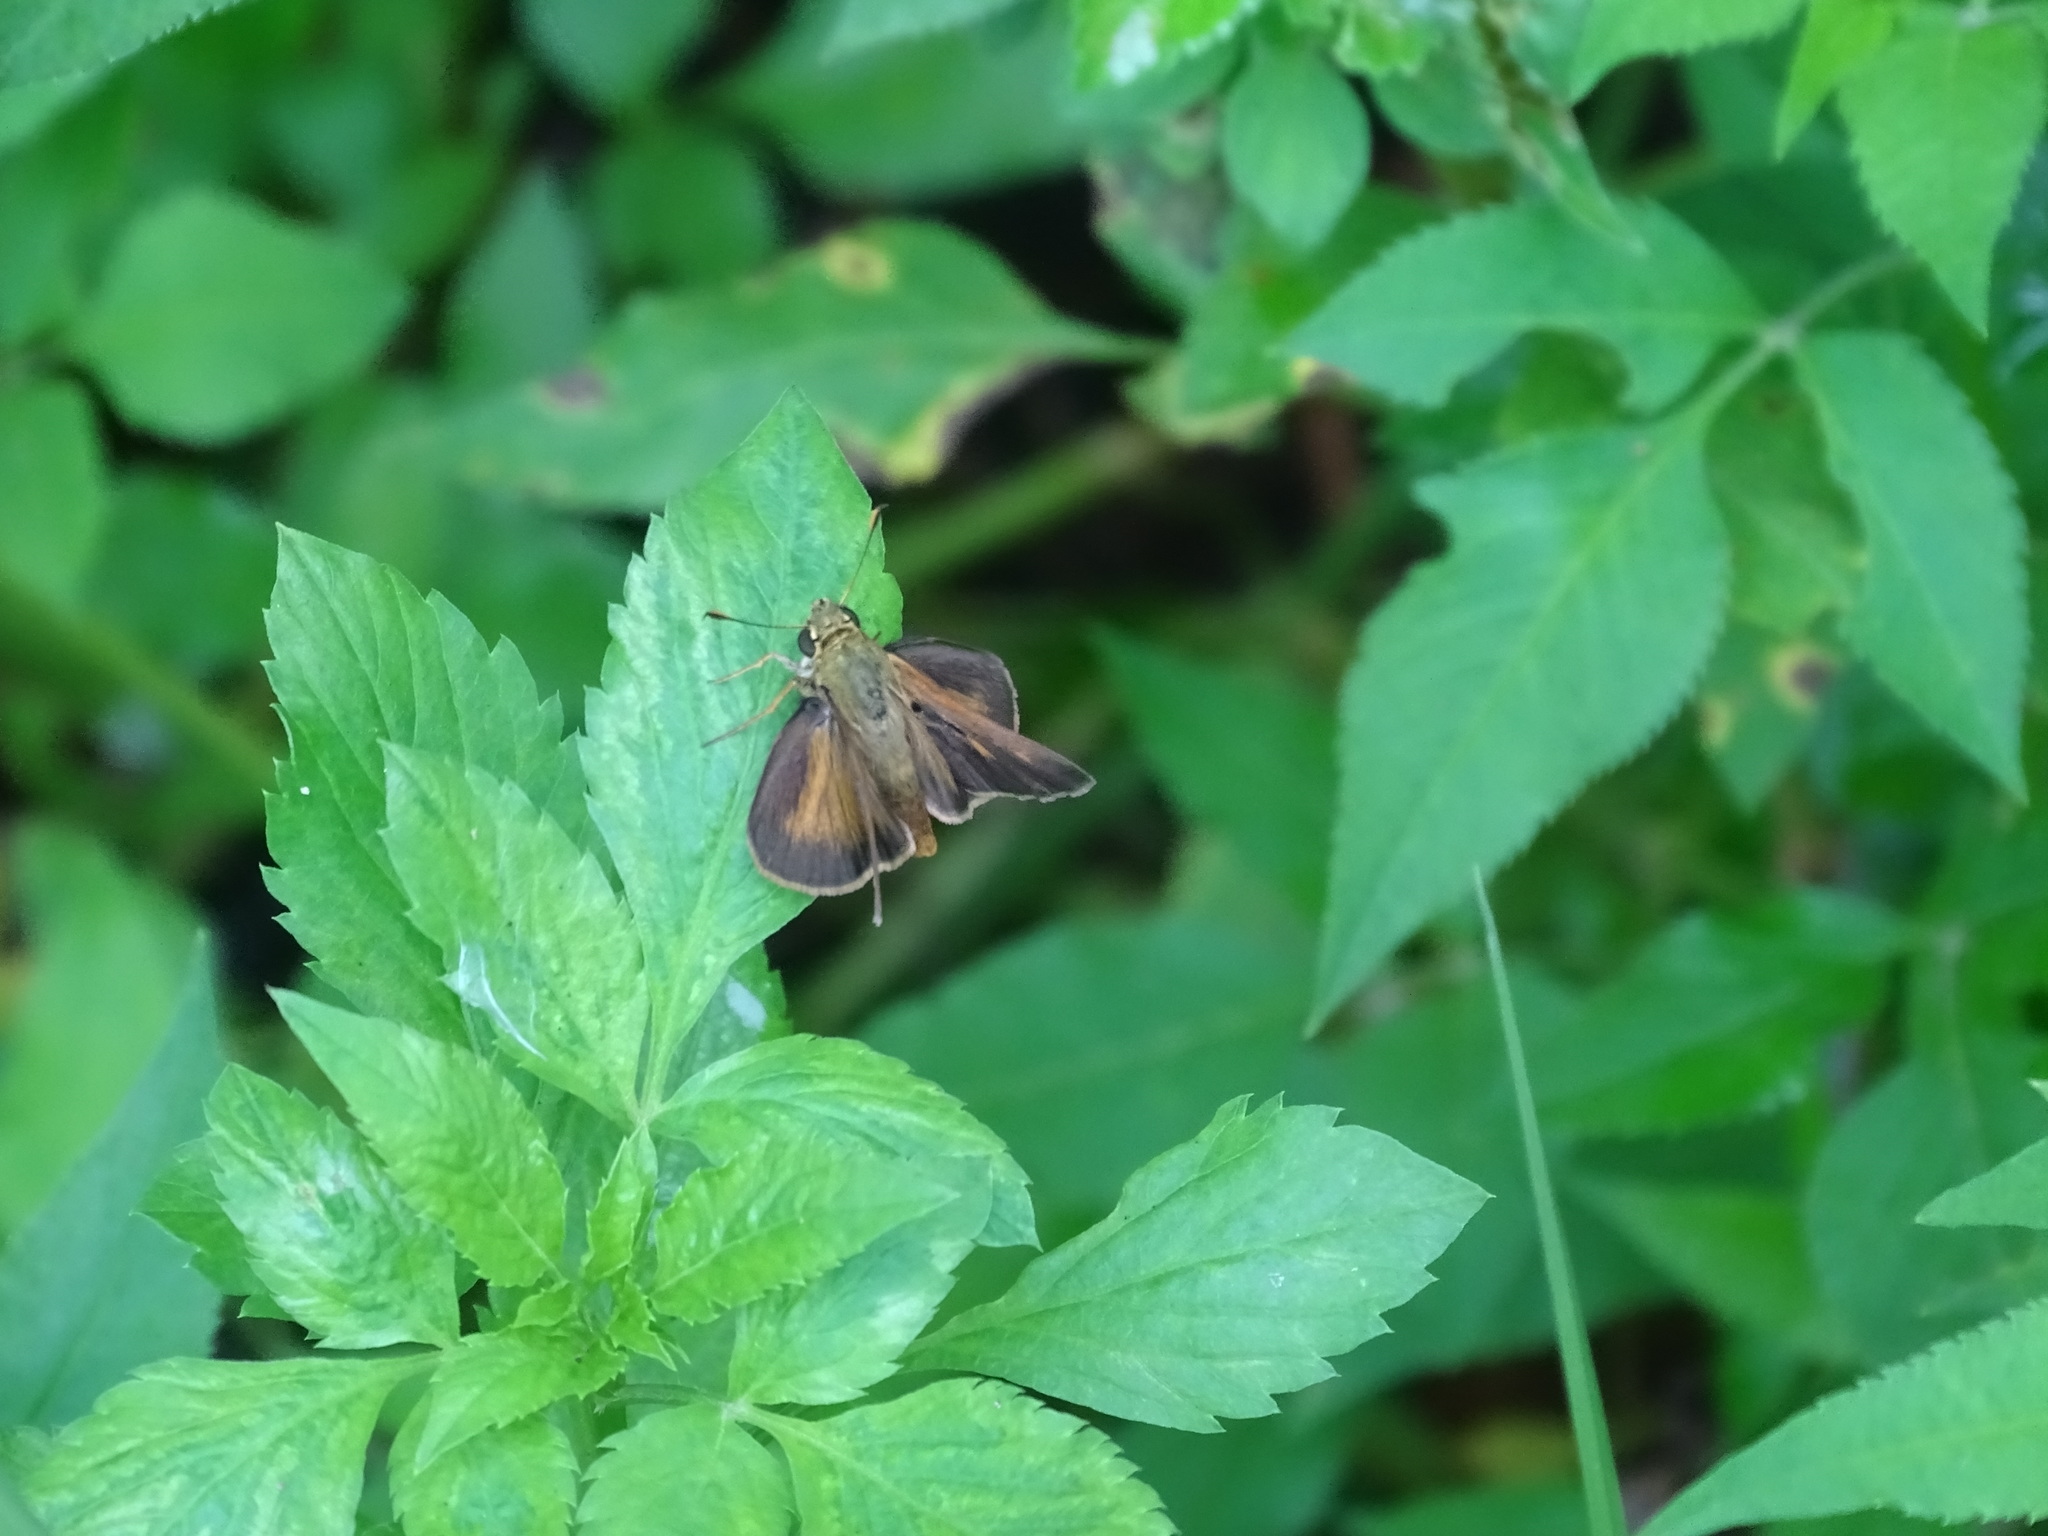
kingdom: Animalia
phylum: Arthropoda
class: Insecta
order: Lepidoptera
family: Hesperiidae
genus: Polites
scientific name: Polites egeremet
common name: Northern broken-dash
